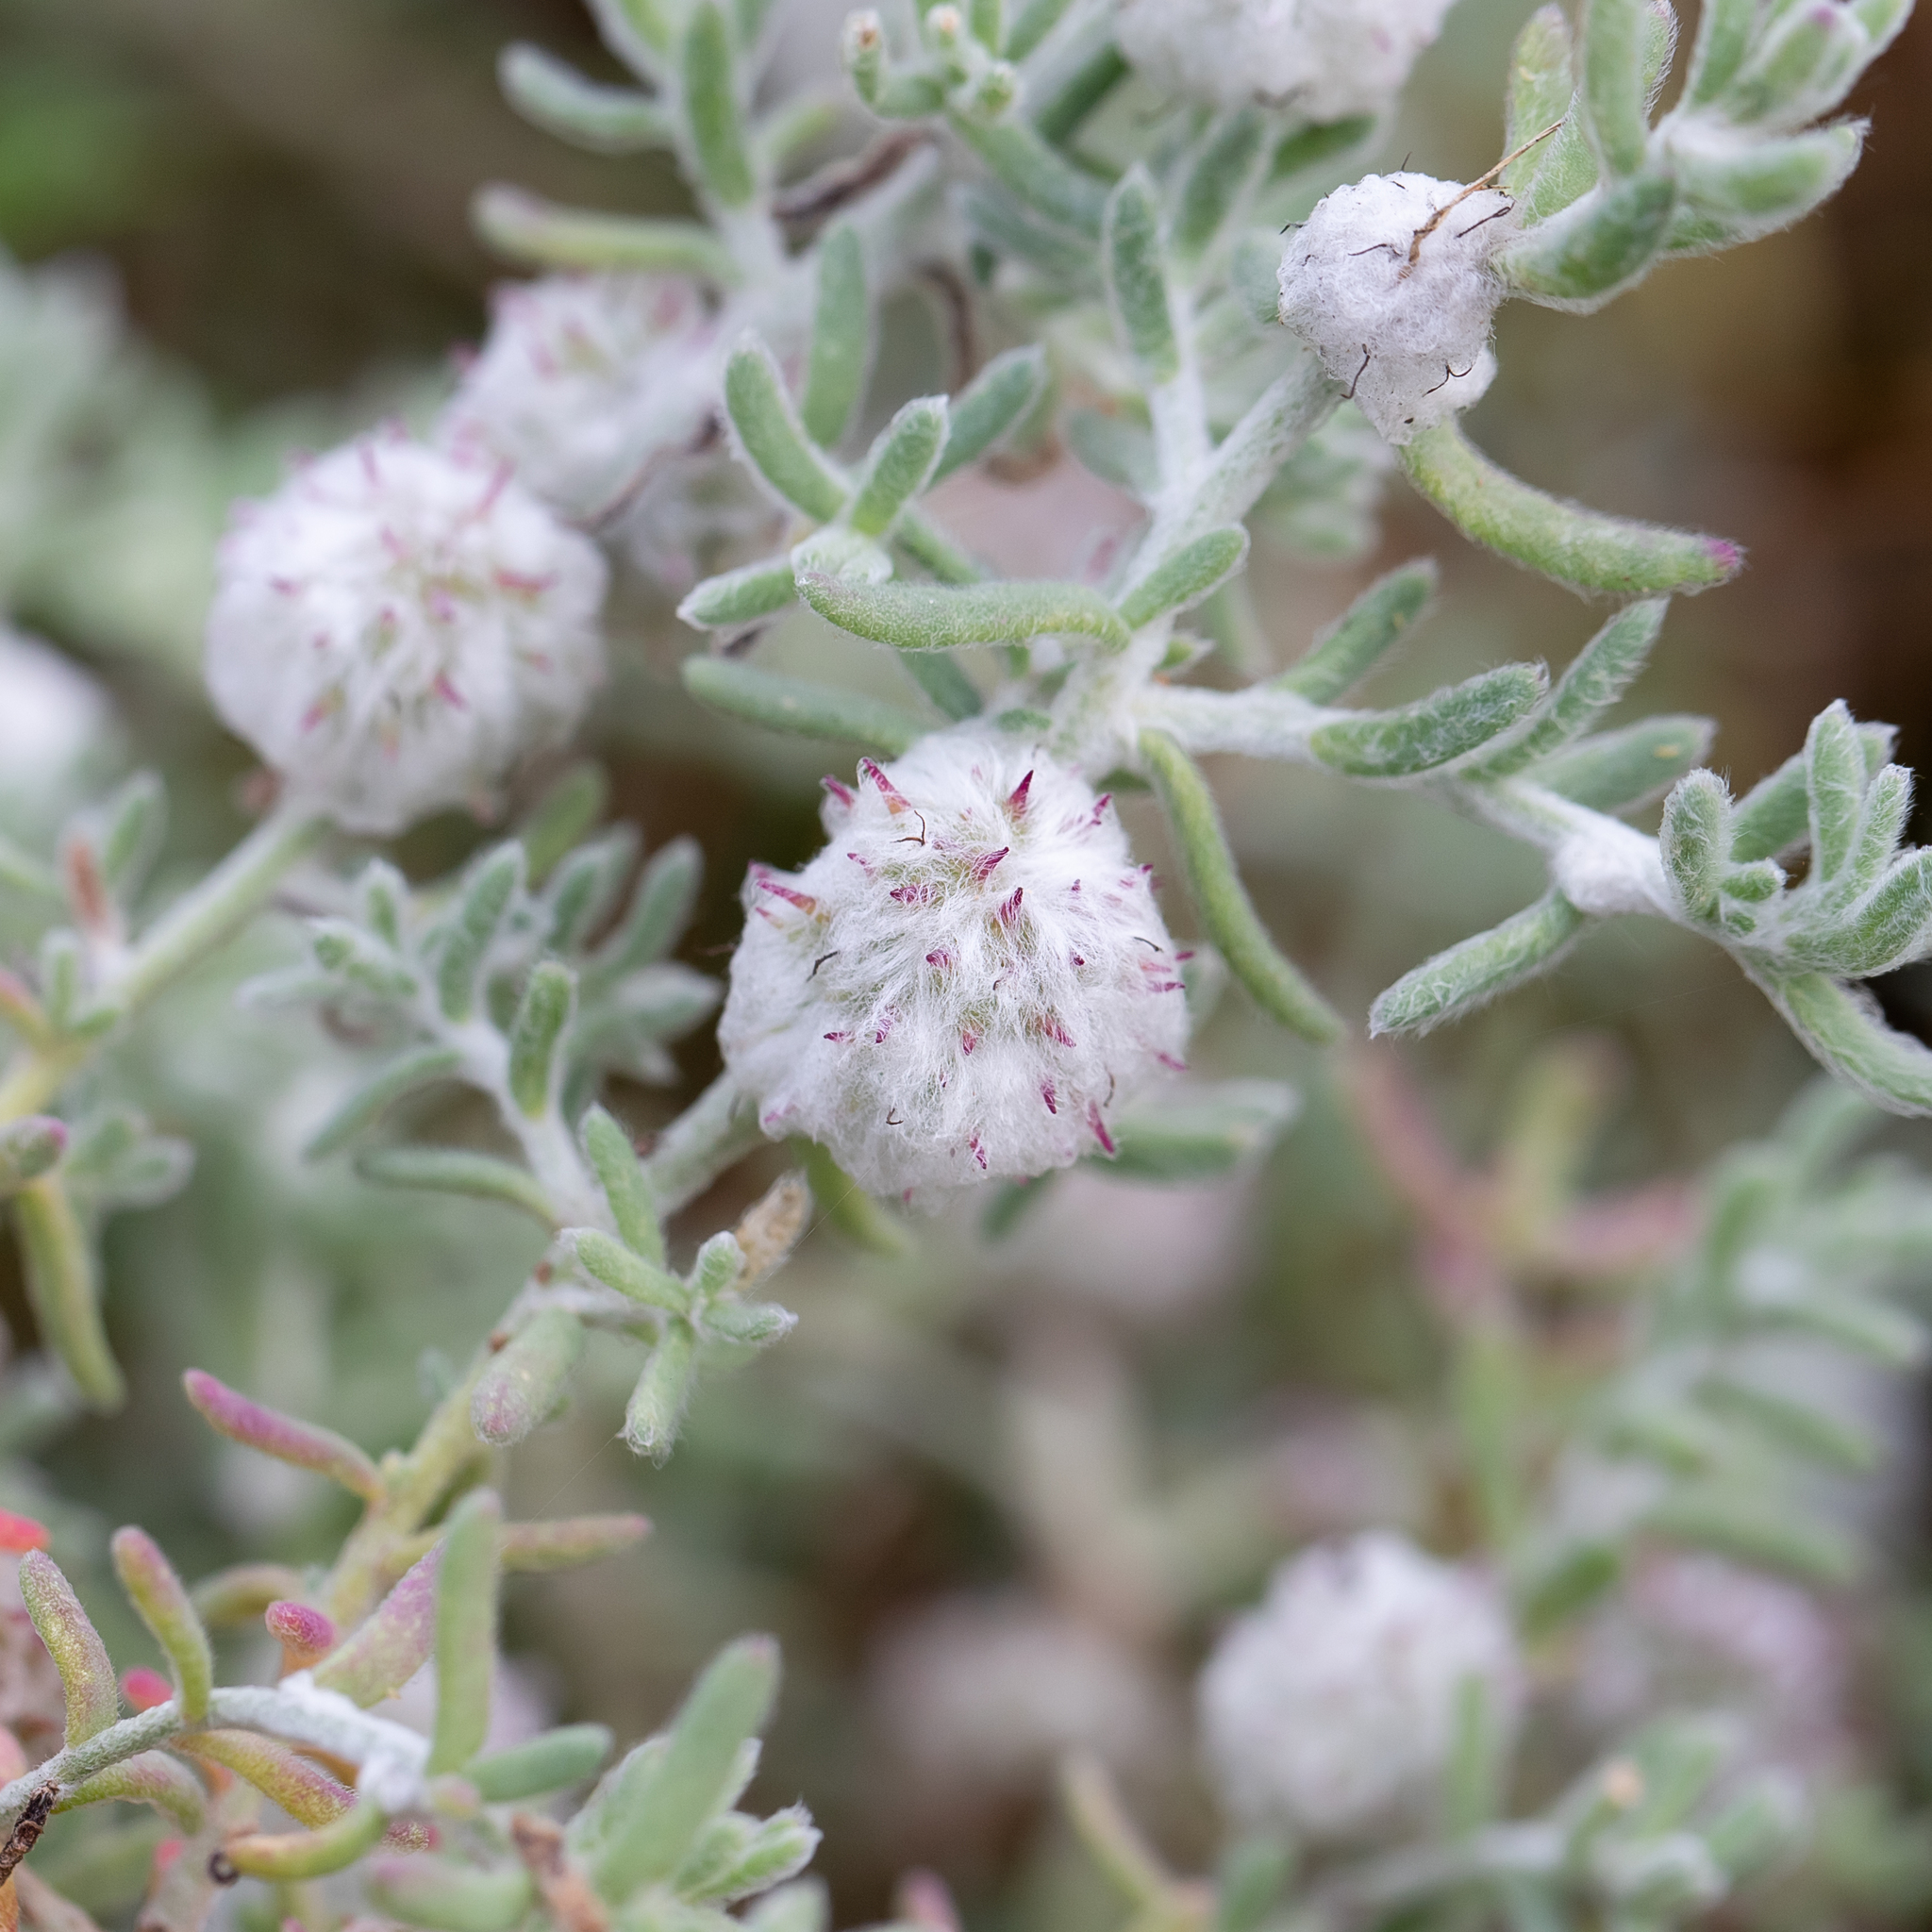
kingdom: Plantae
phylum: Tracheophyta
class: Magnoliopsida
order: Caryophyllales
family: Amaranthaceae
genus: Dissocarpus
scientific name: Dissocarpus paradoxus
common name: Bur-saltbush
